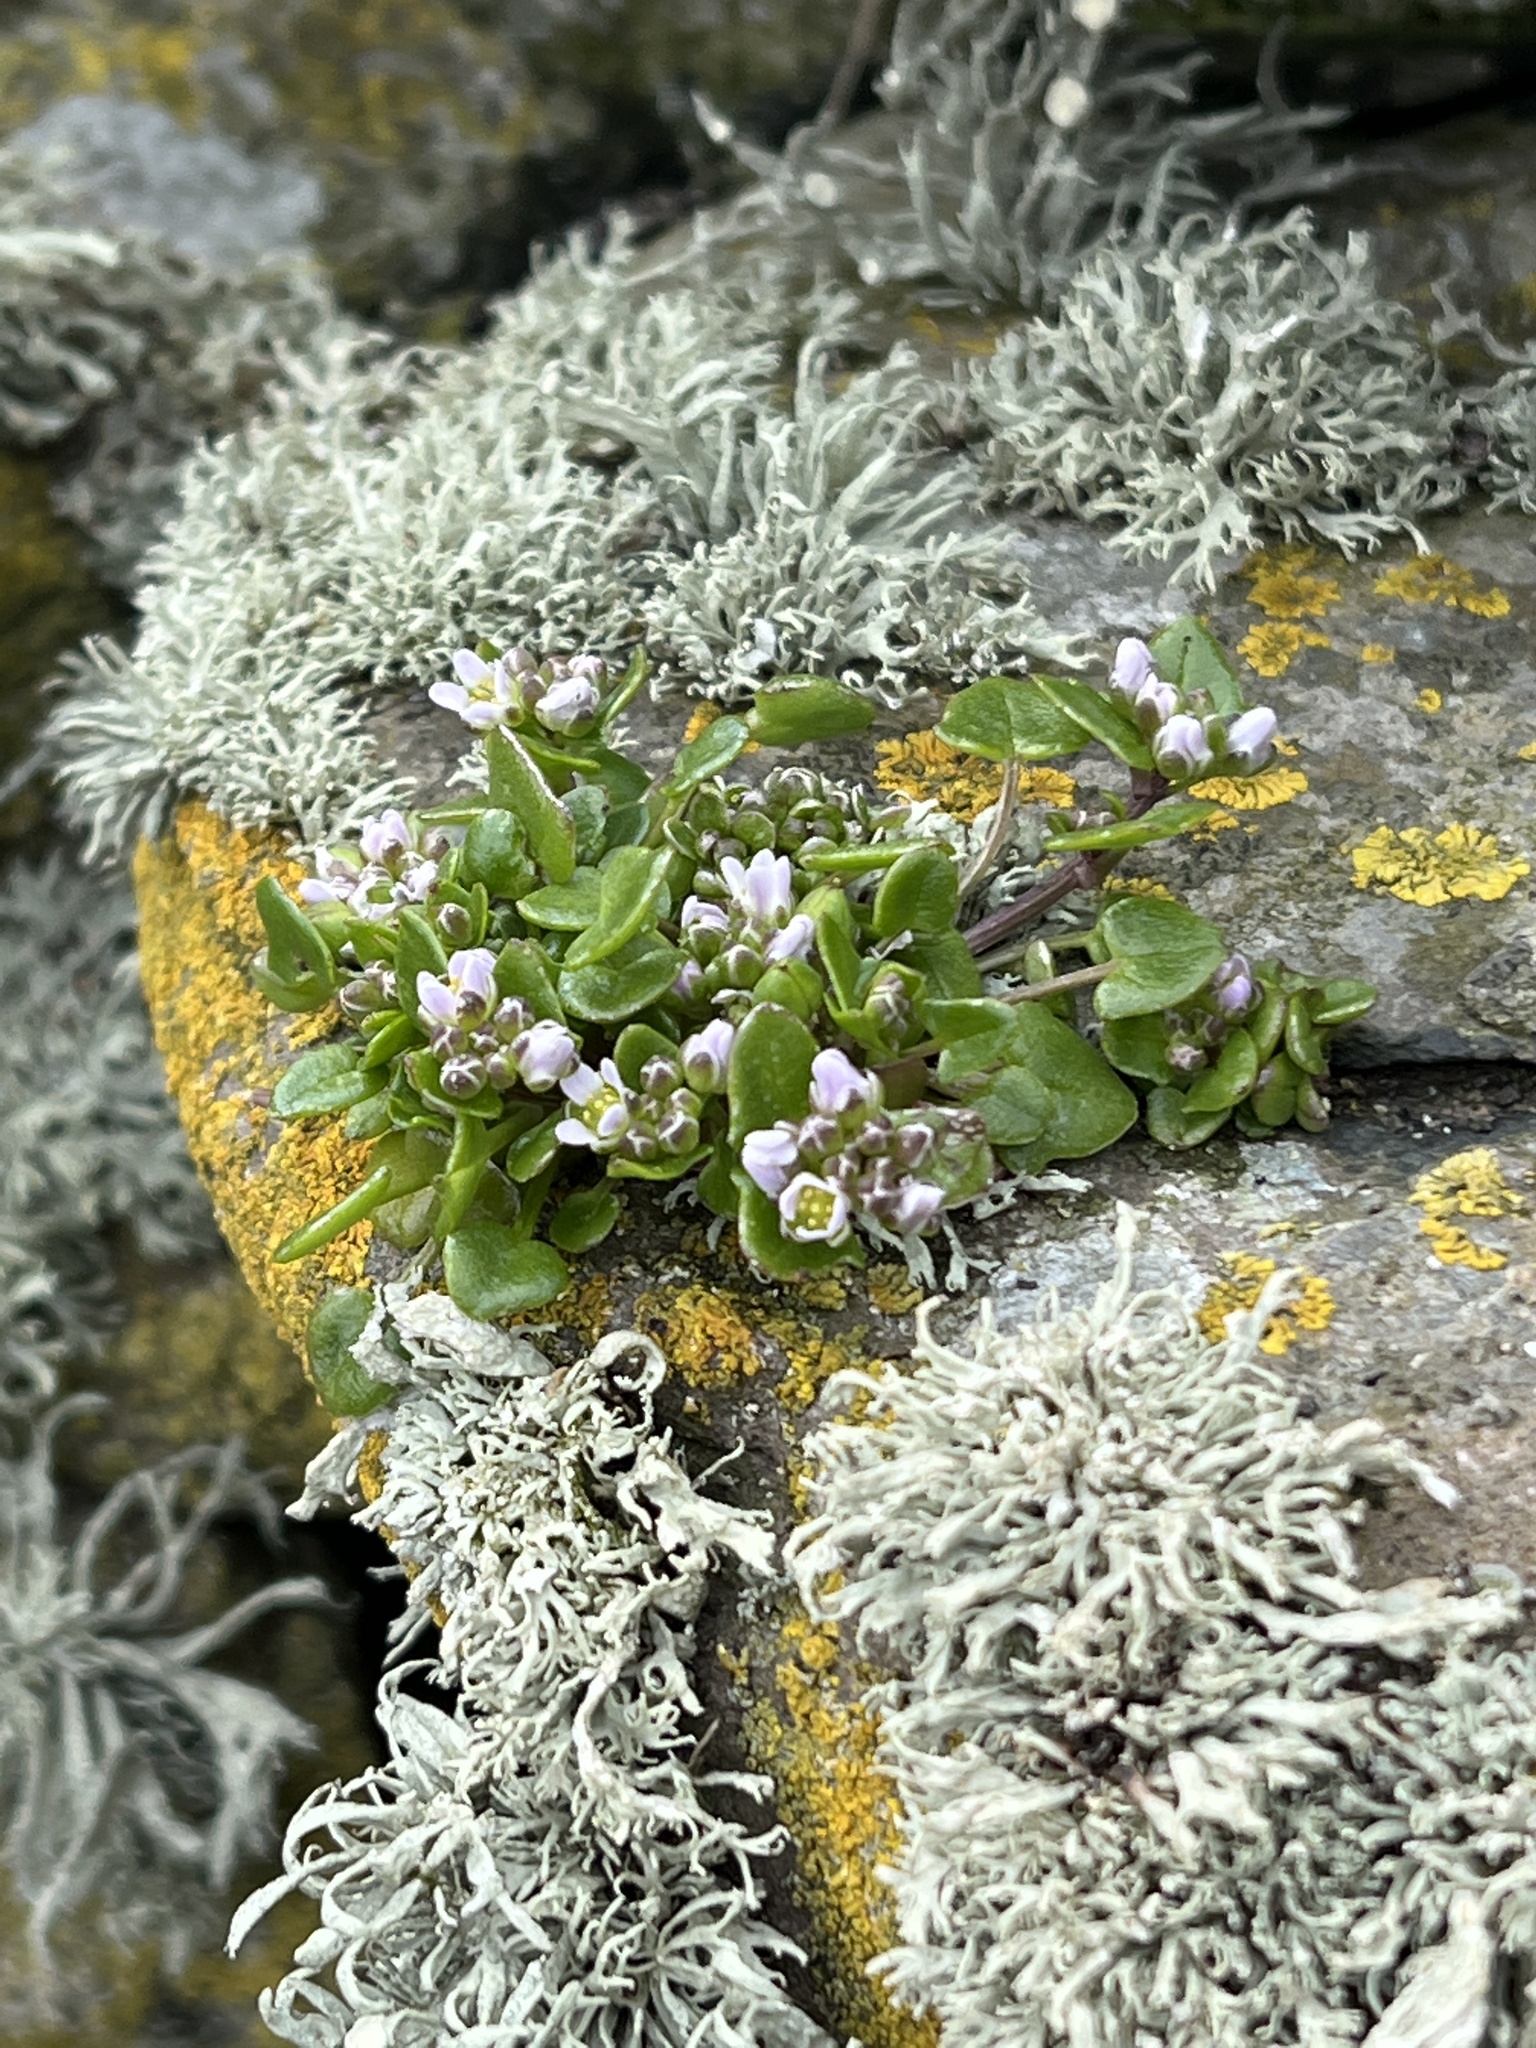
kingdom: Plantae
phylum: Tracheophyta
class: Magnoliopsida
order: Brassicales
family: Brassicaceae
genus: Cochlearia
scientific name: Cochlearia officinalis
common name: Scurvy-grass
